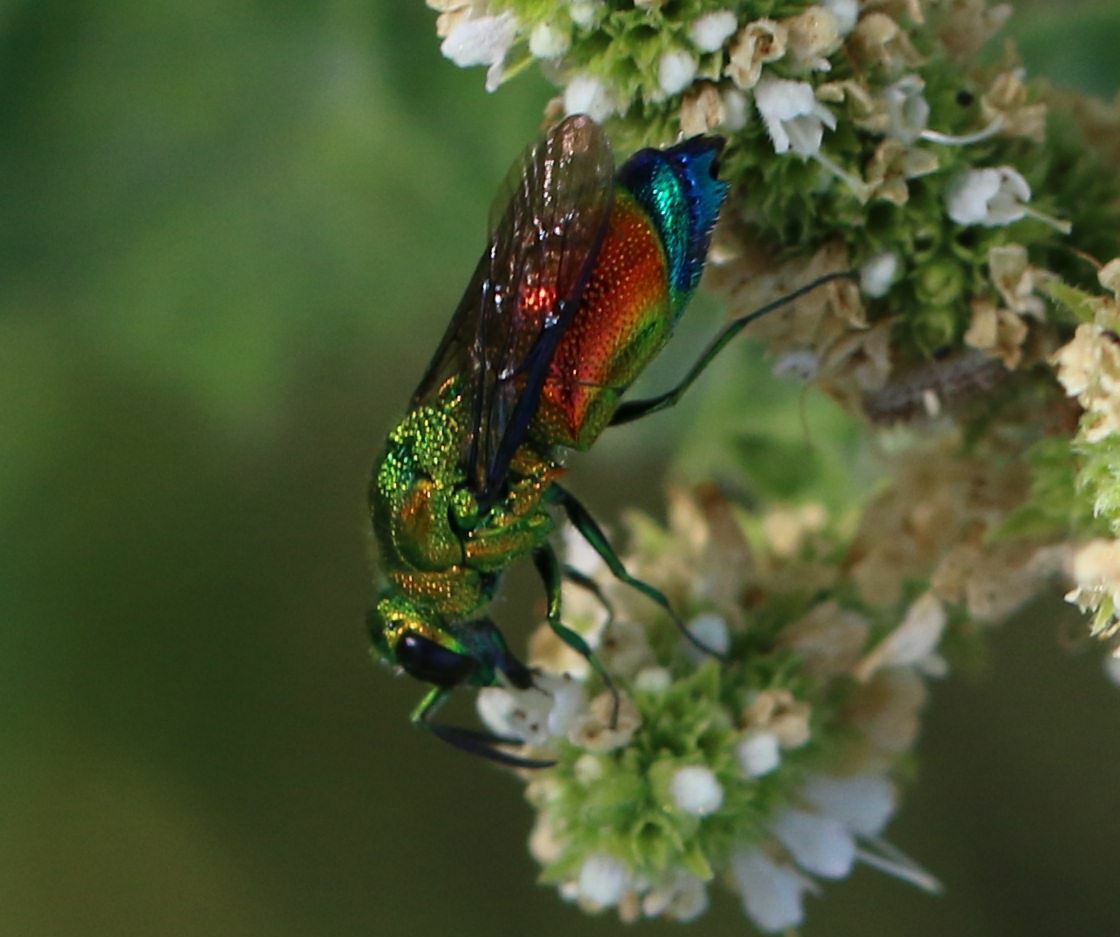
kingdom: Animalia
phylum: Arthropoda
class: Insecta
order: Hymenoptera
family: Chrysididae
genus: Stilbum
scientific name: Stilbum cyanurum
